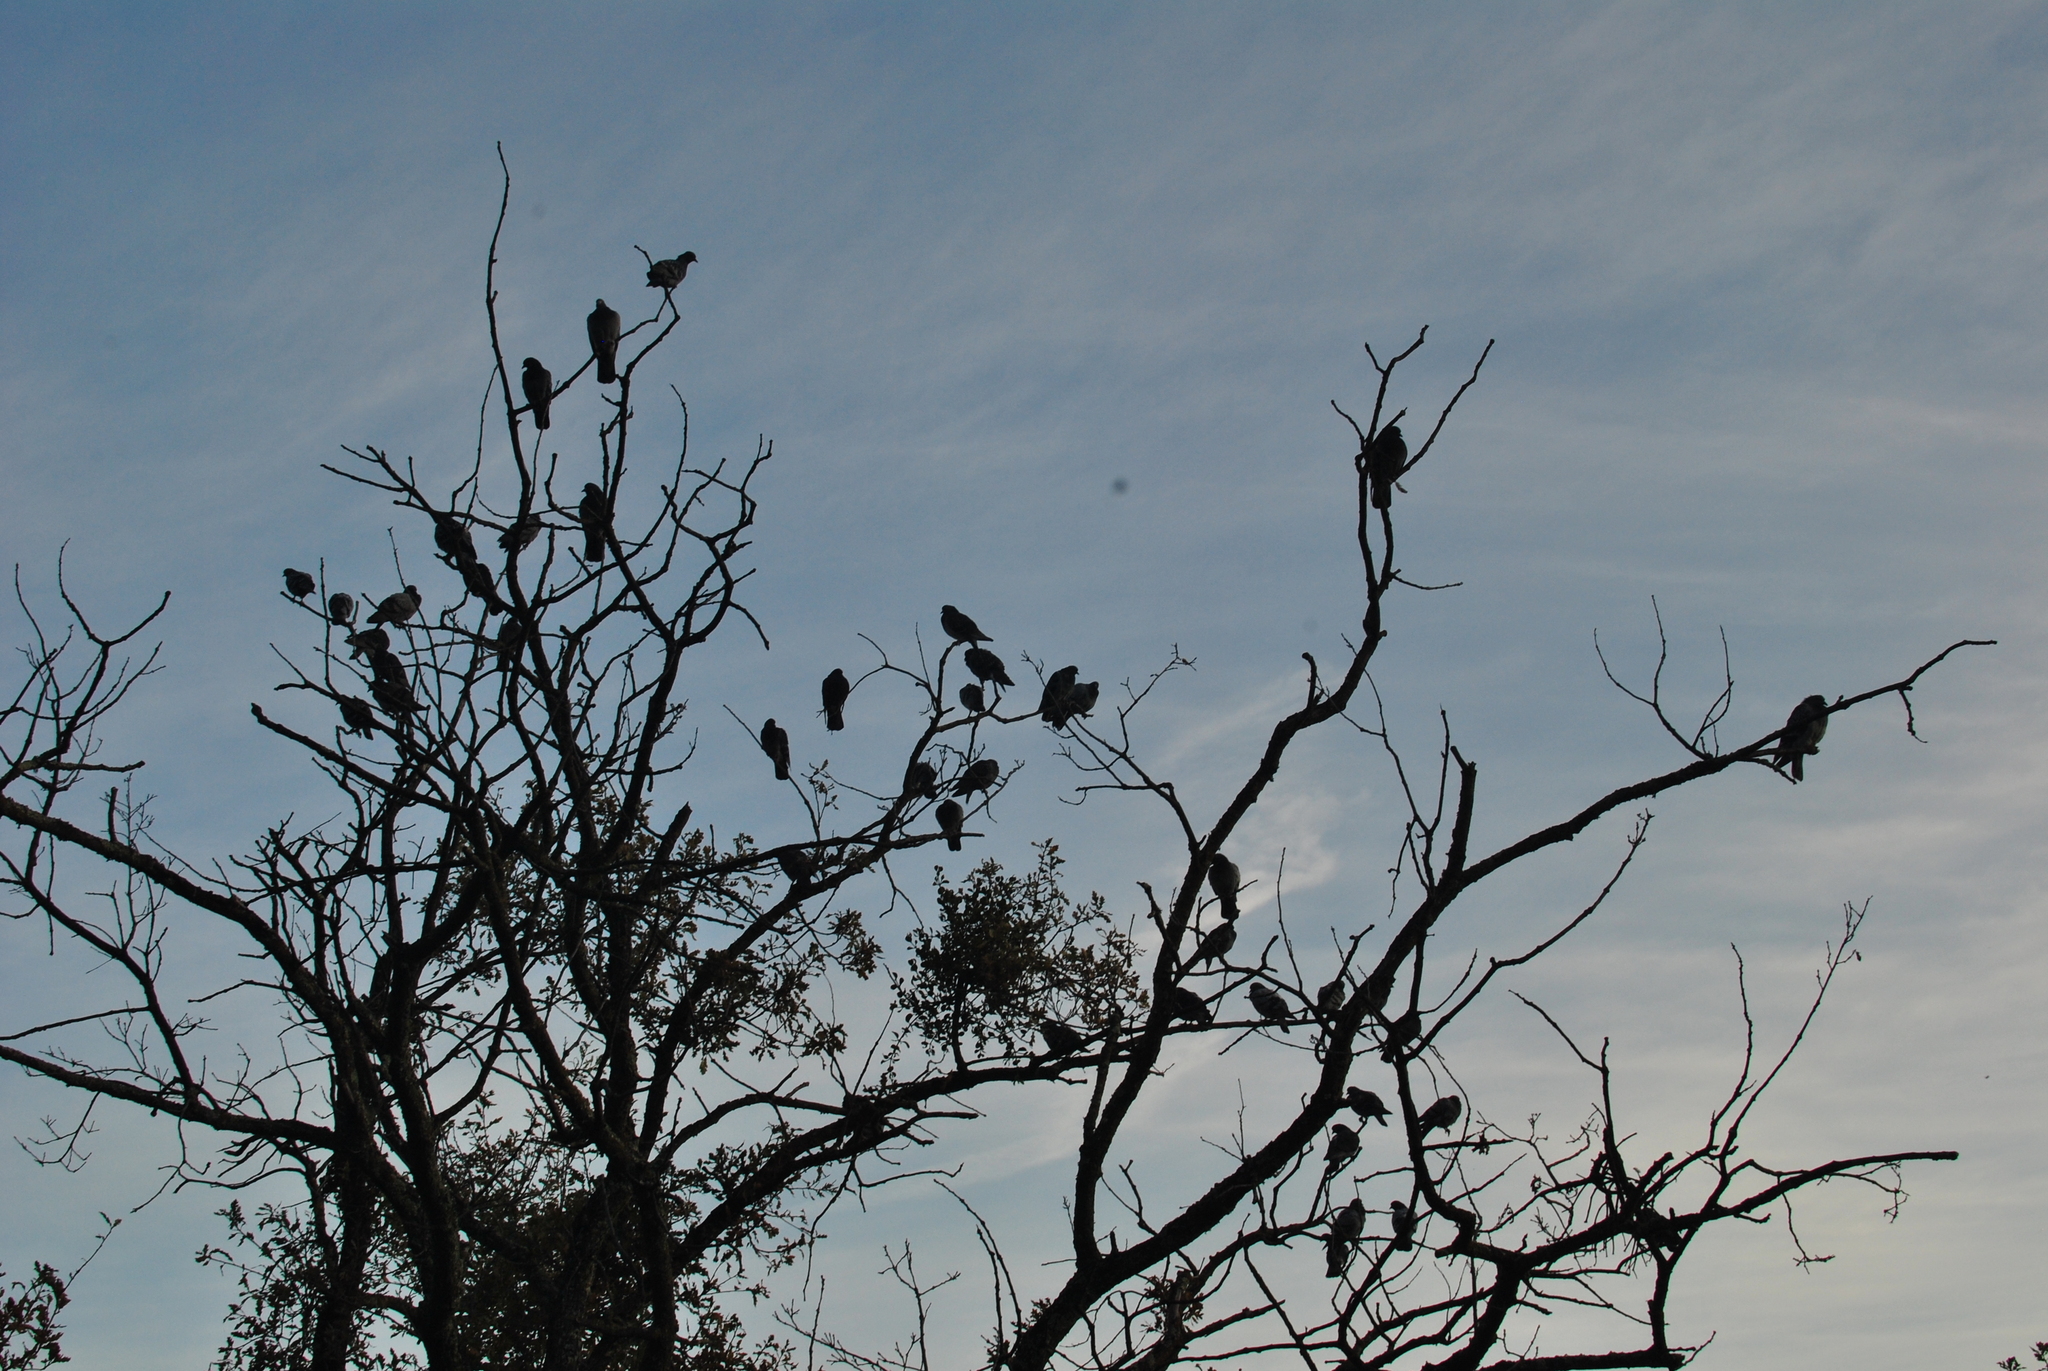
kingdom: Animalia
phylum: Chordata
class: Aves
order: Columbiformes
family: Columbidae
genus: Columba
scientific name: Columba livia
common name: Rock pigeon
